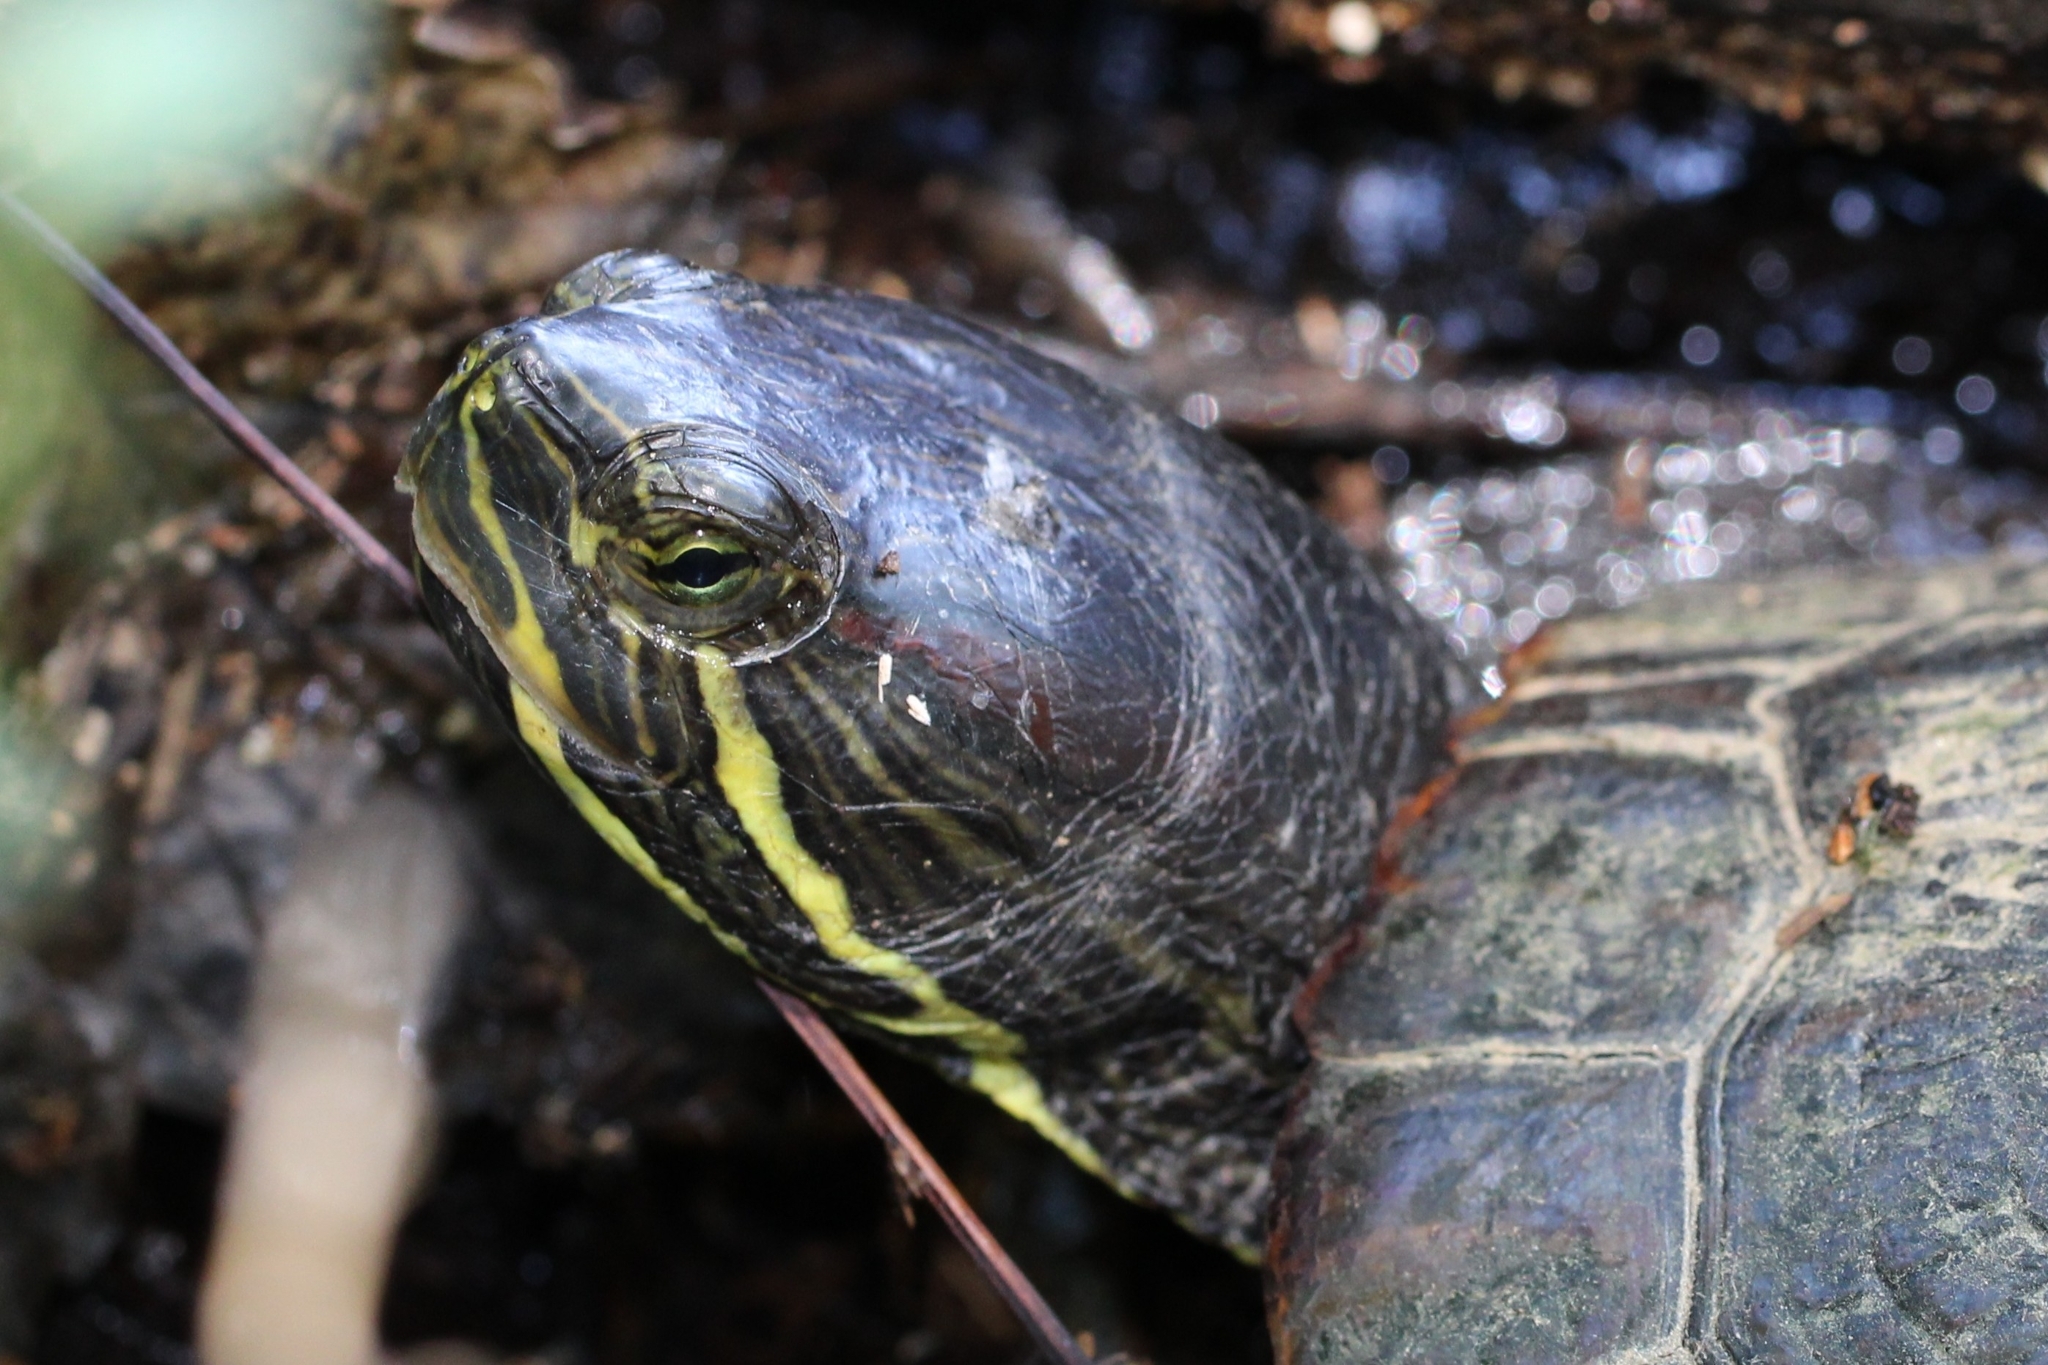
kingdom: Animalia
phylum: Chordata
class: Testudines
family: Emydidae
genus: Trachemys
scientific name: Trachemys scripta
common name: Slider
